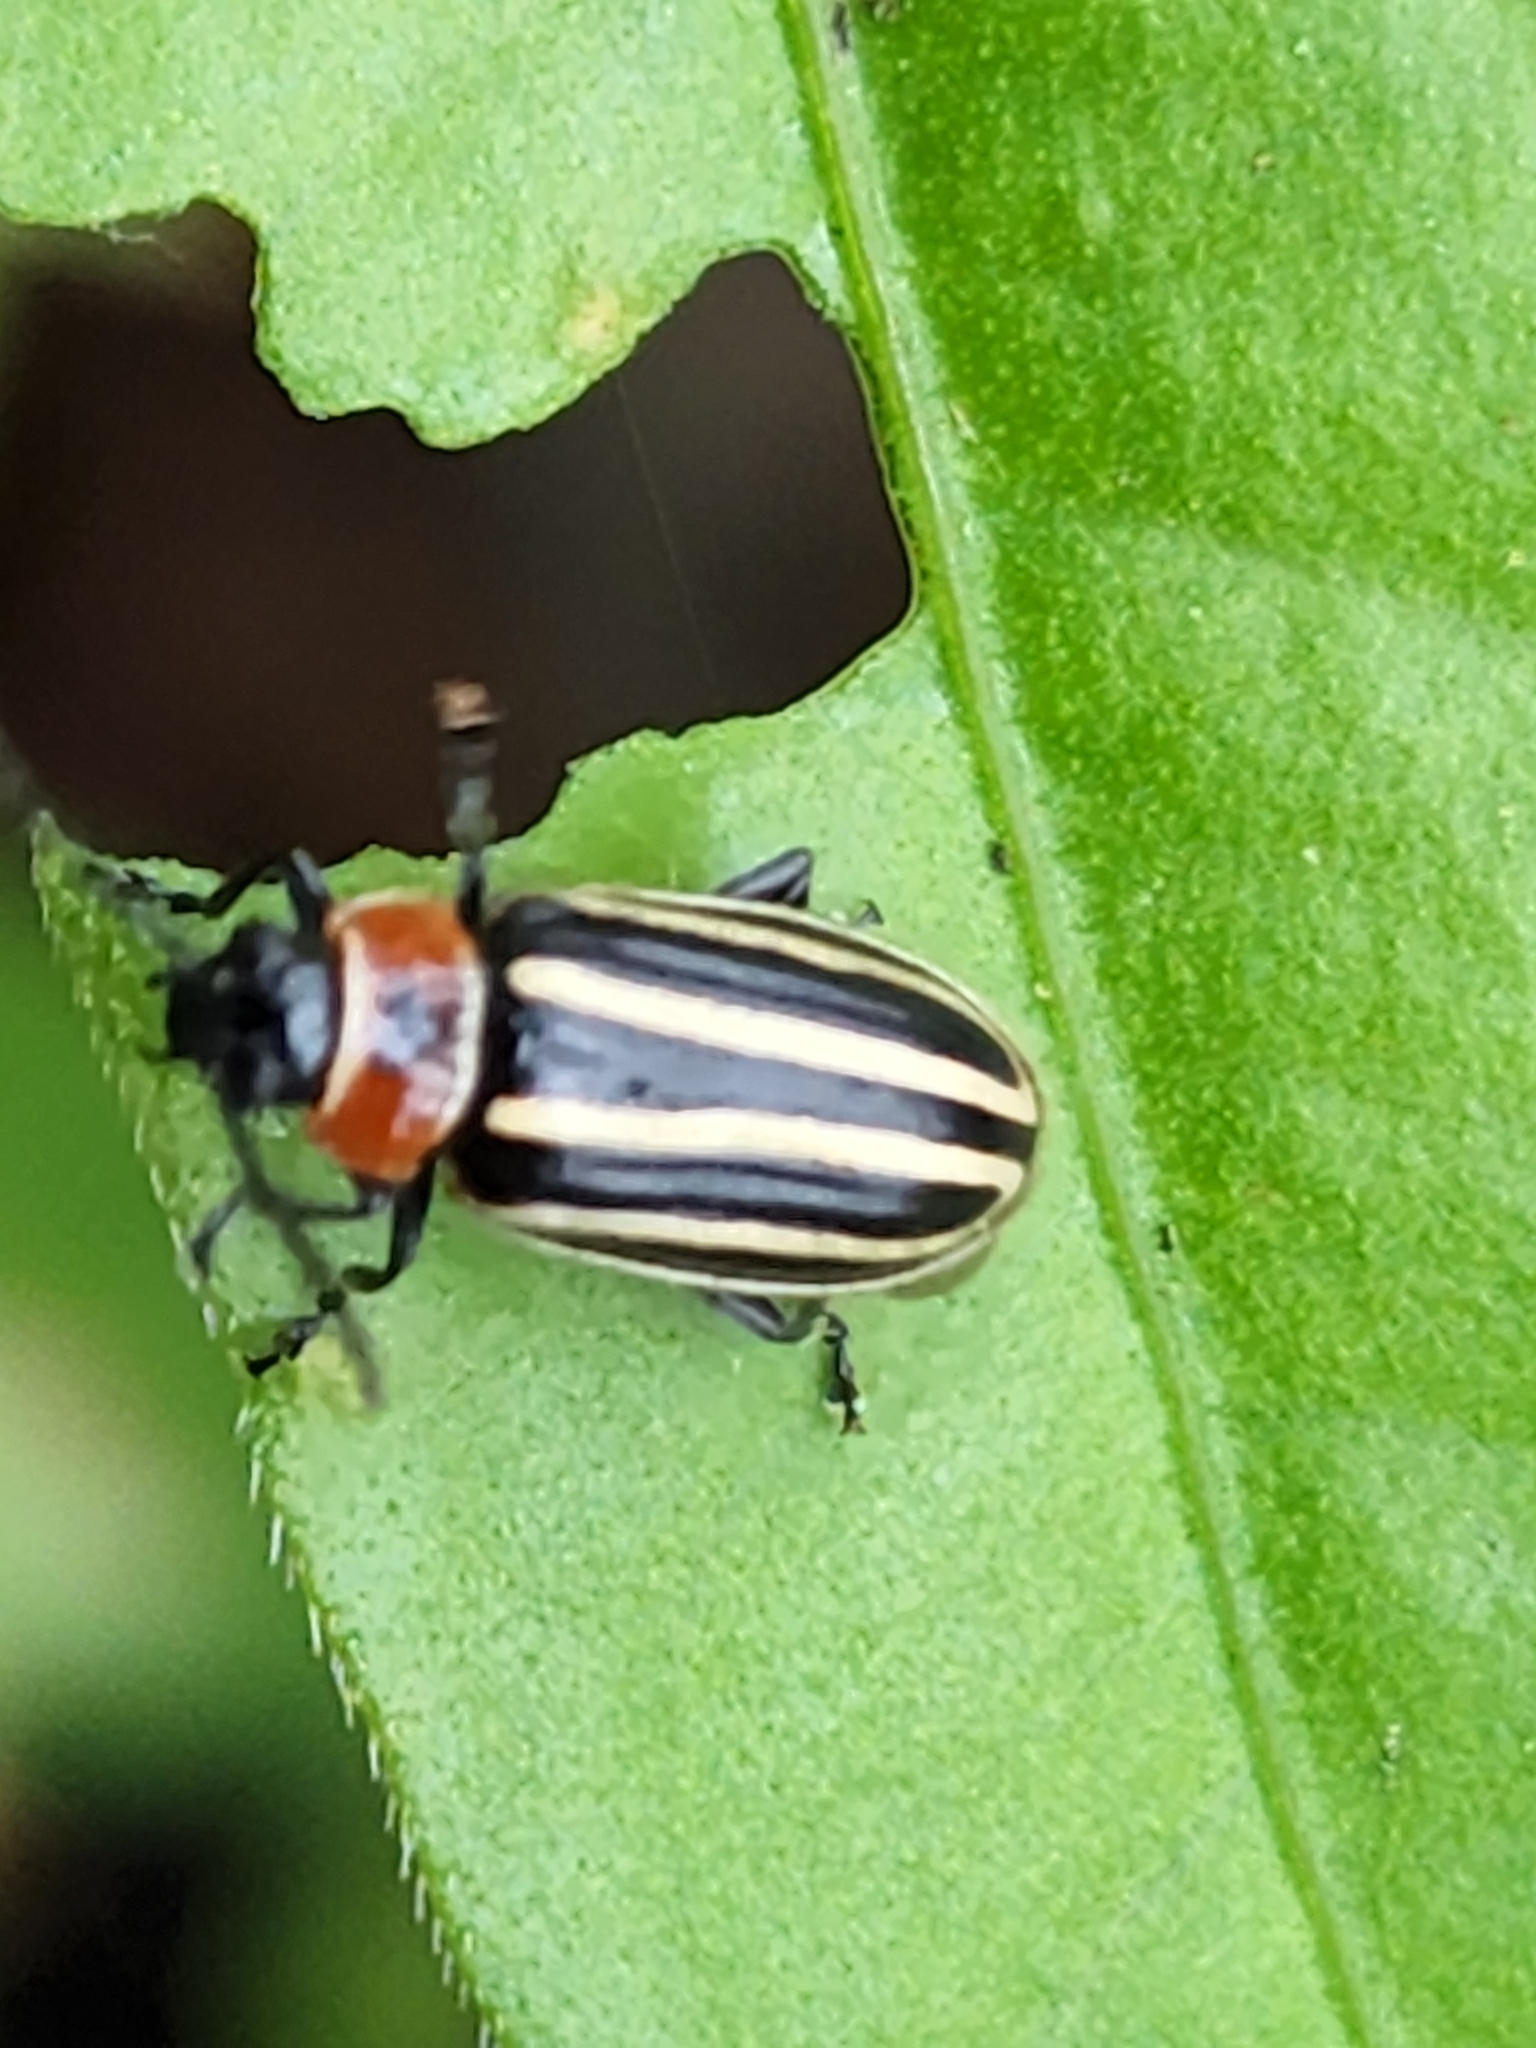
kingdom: Animalia
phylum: Arthropoda
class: Insecta
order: Coleoptera
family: Chrysomelidae
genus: Disonycha
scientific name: Disonycha pensylvanica
